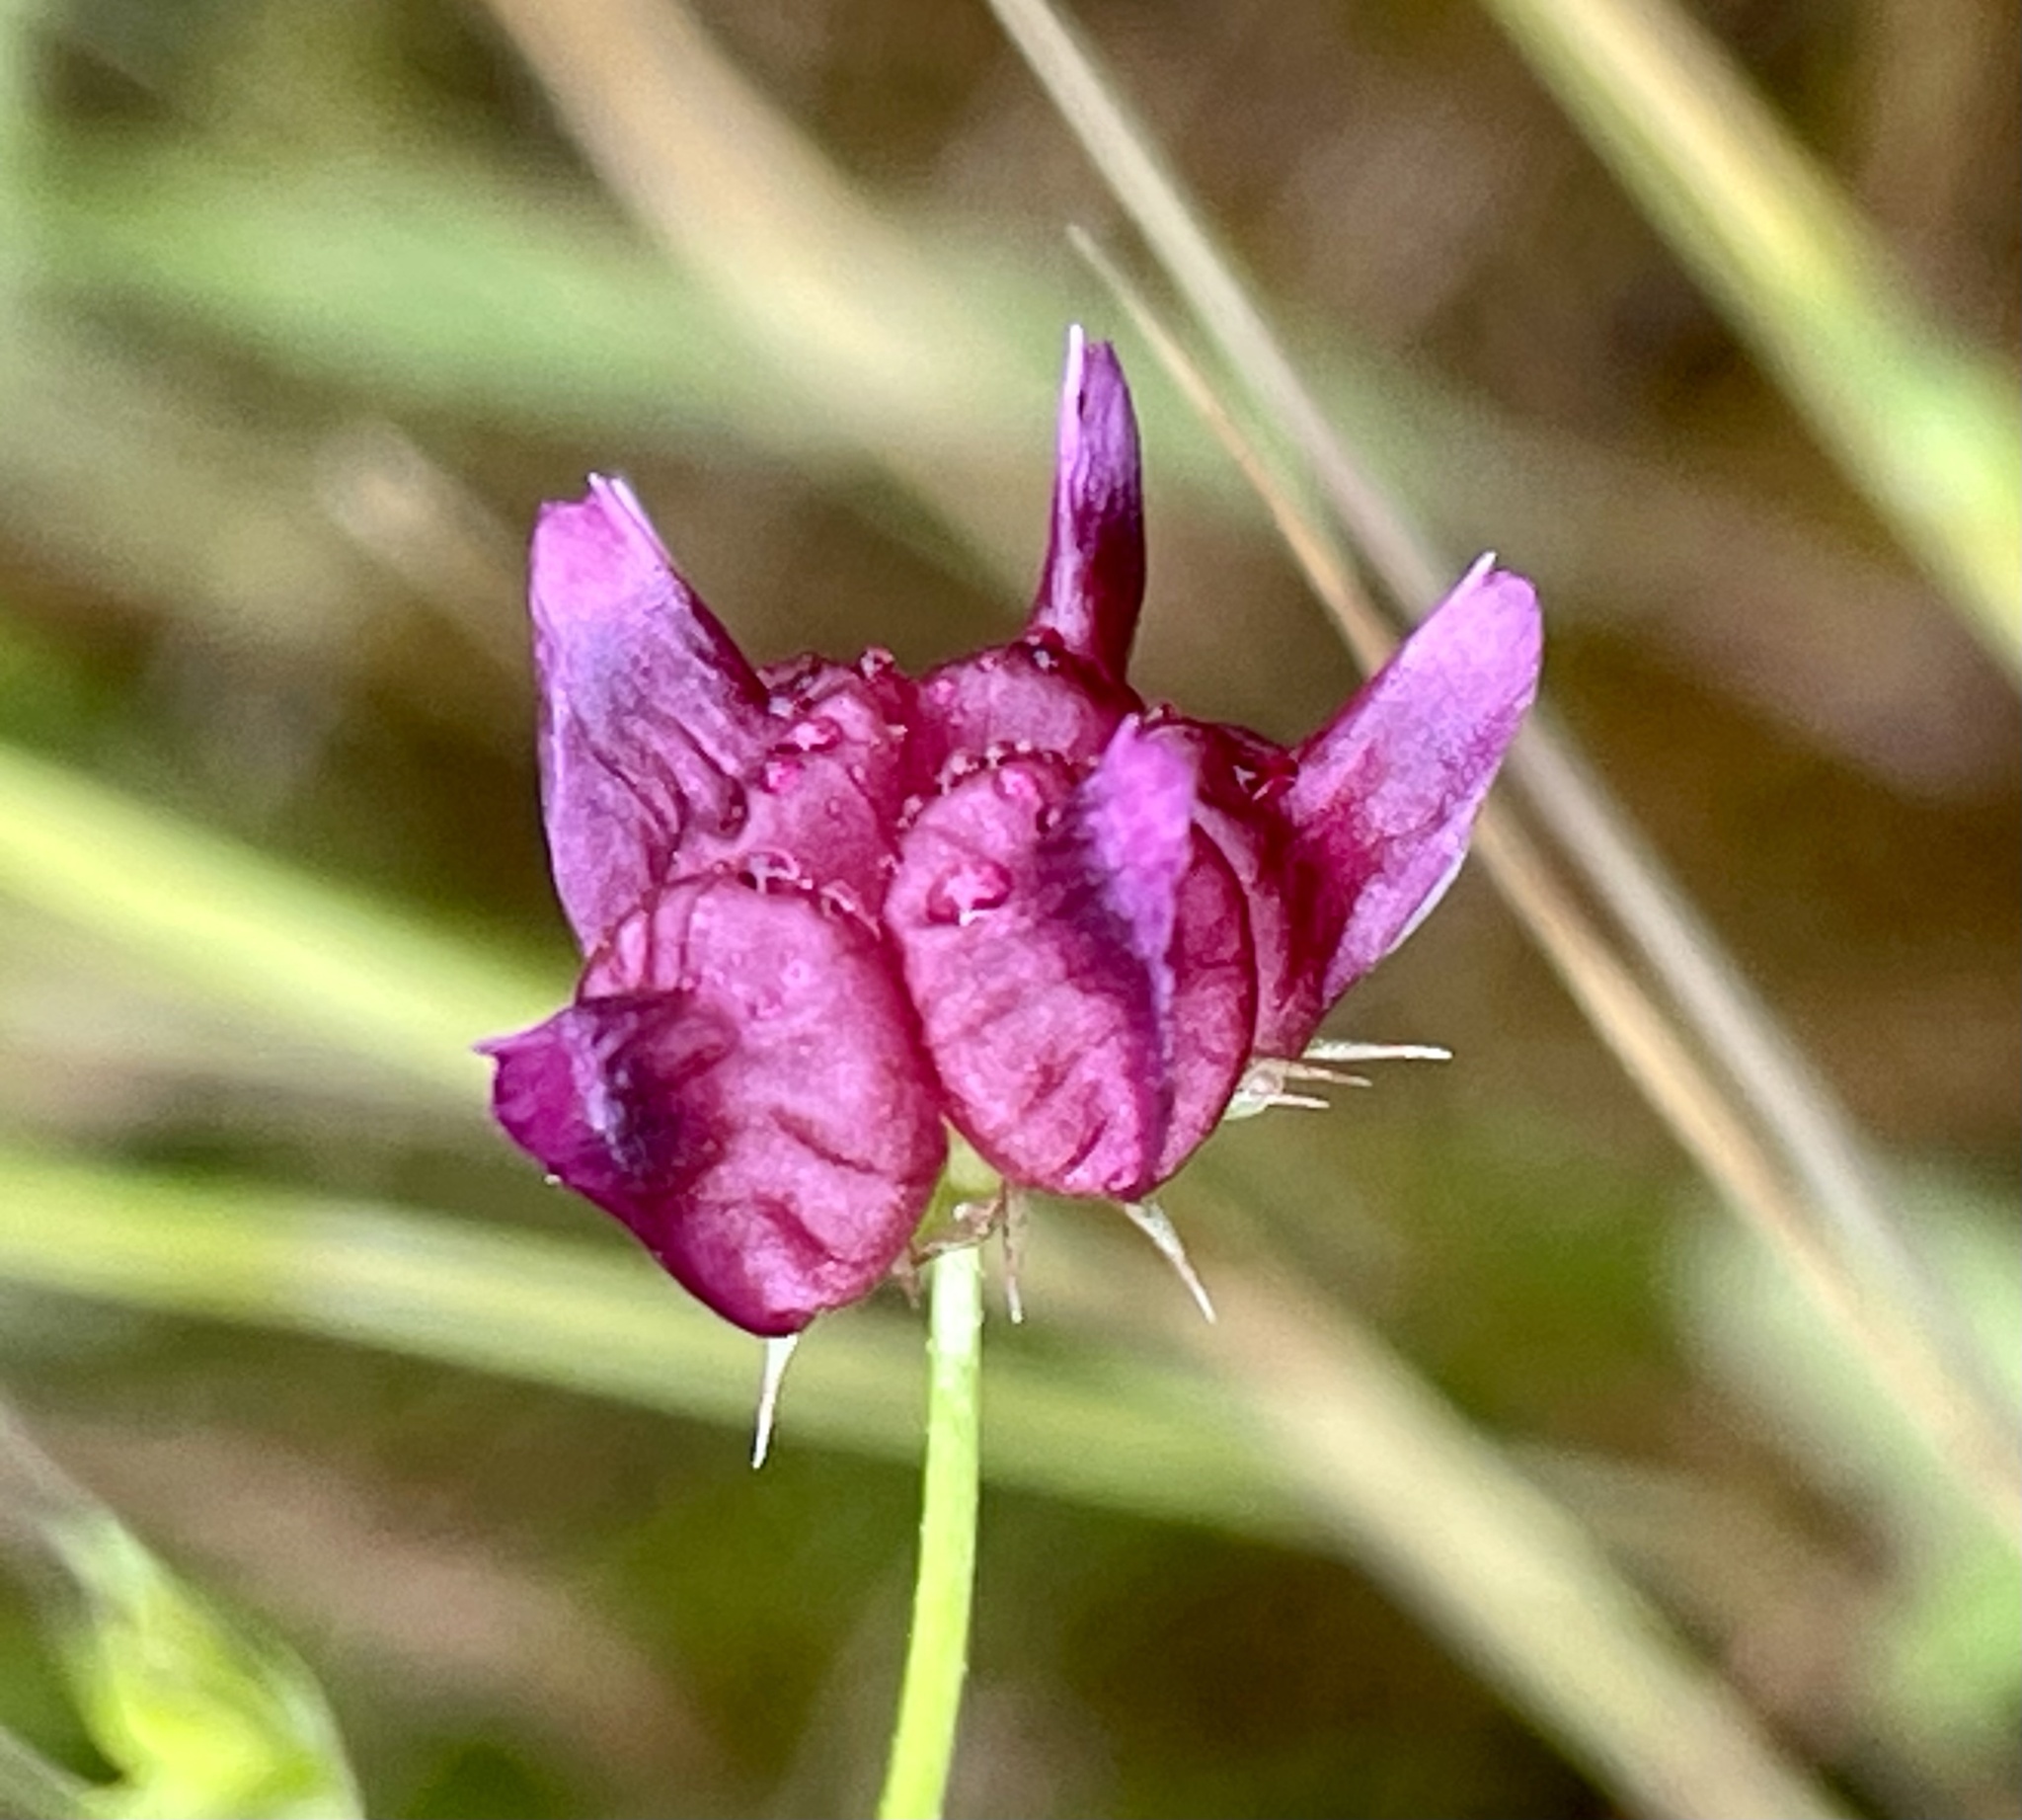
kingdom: Plantae
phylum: Tracheophyta
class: Magnoliopsida
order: Fabales
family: Fabaceae
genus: Trifolium
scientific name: Trifolium depauperatum
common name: Poverty clover
